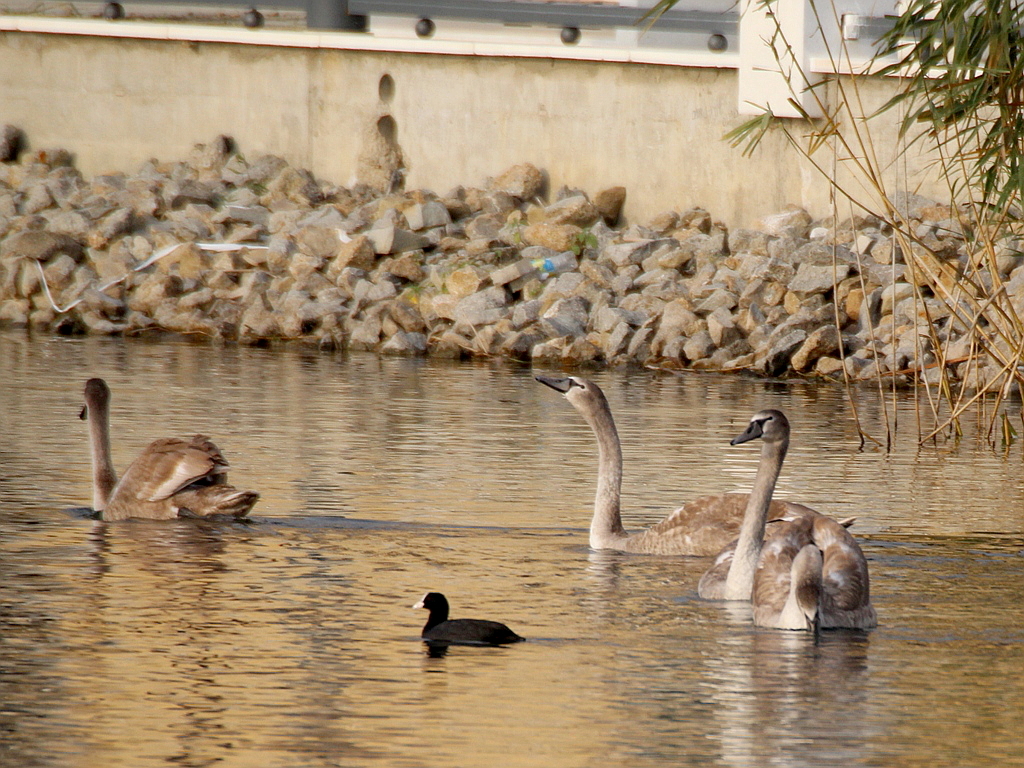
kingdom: Animalia
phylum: Chordata
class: Aves
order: Anseriformes
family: Anatidae
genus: Cygnus
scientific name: Cygnus olor
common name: Mute swan
